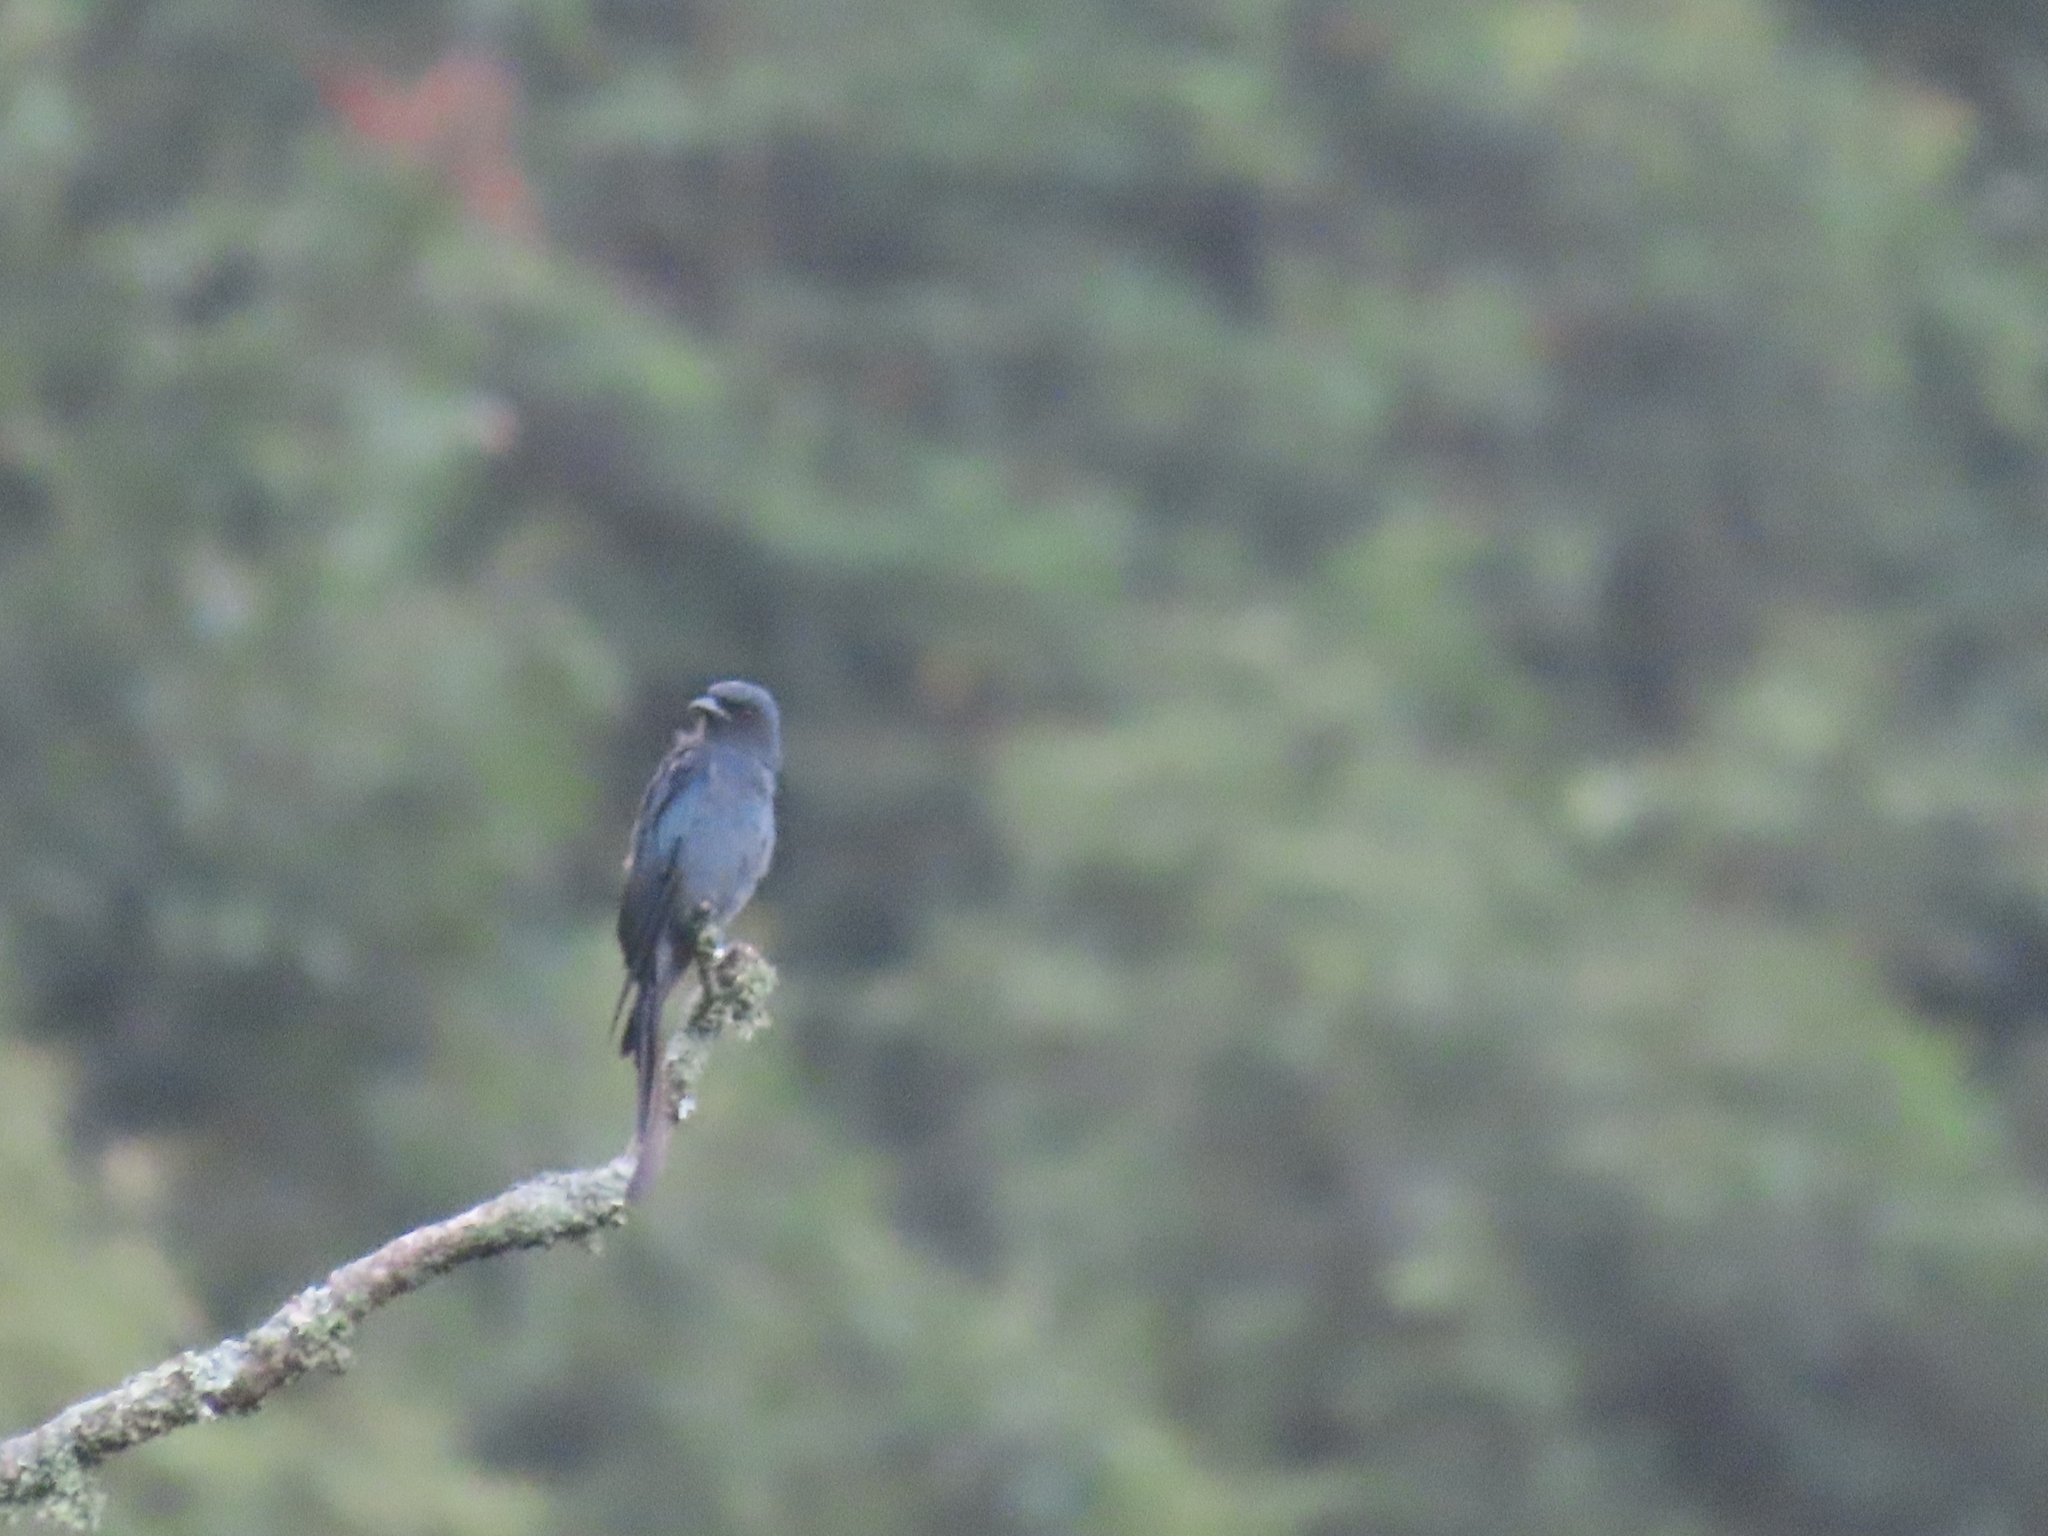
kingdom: Animalia
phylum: Chordata
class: Aves
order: Passeriformes
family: Dicruridae
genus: Dicrurus
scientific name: Dicrurus leucophaeus
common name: Ashy drongo
